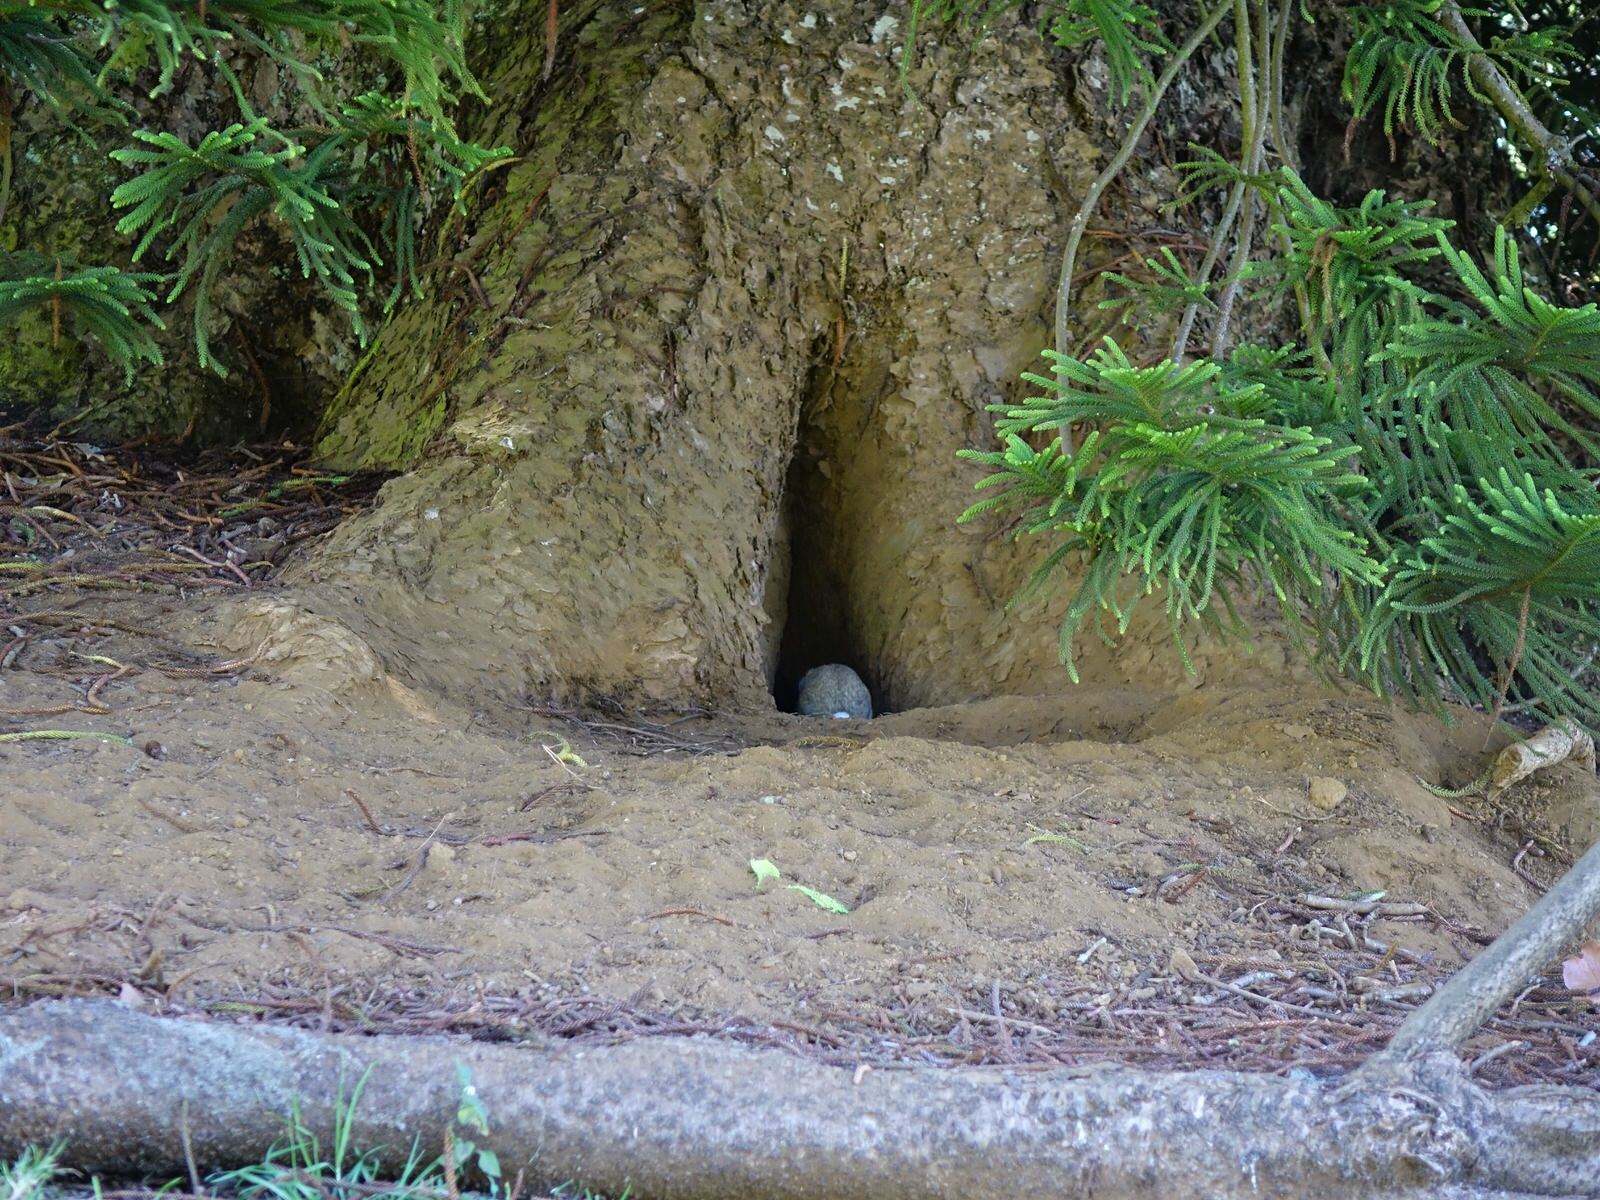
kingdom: Animalia
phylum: Chordata
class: Mammalia
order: Lagomorpha
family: Leporidae
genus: Oryctolagus
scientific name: Oryctolagus cuniculus
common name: European rabbit
